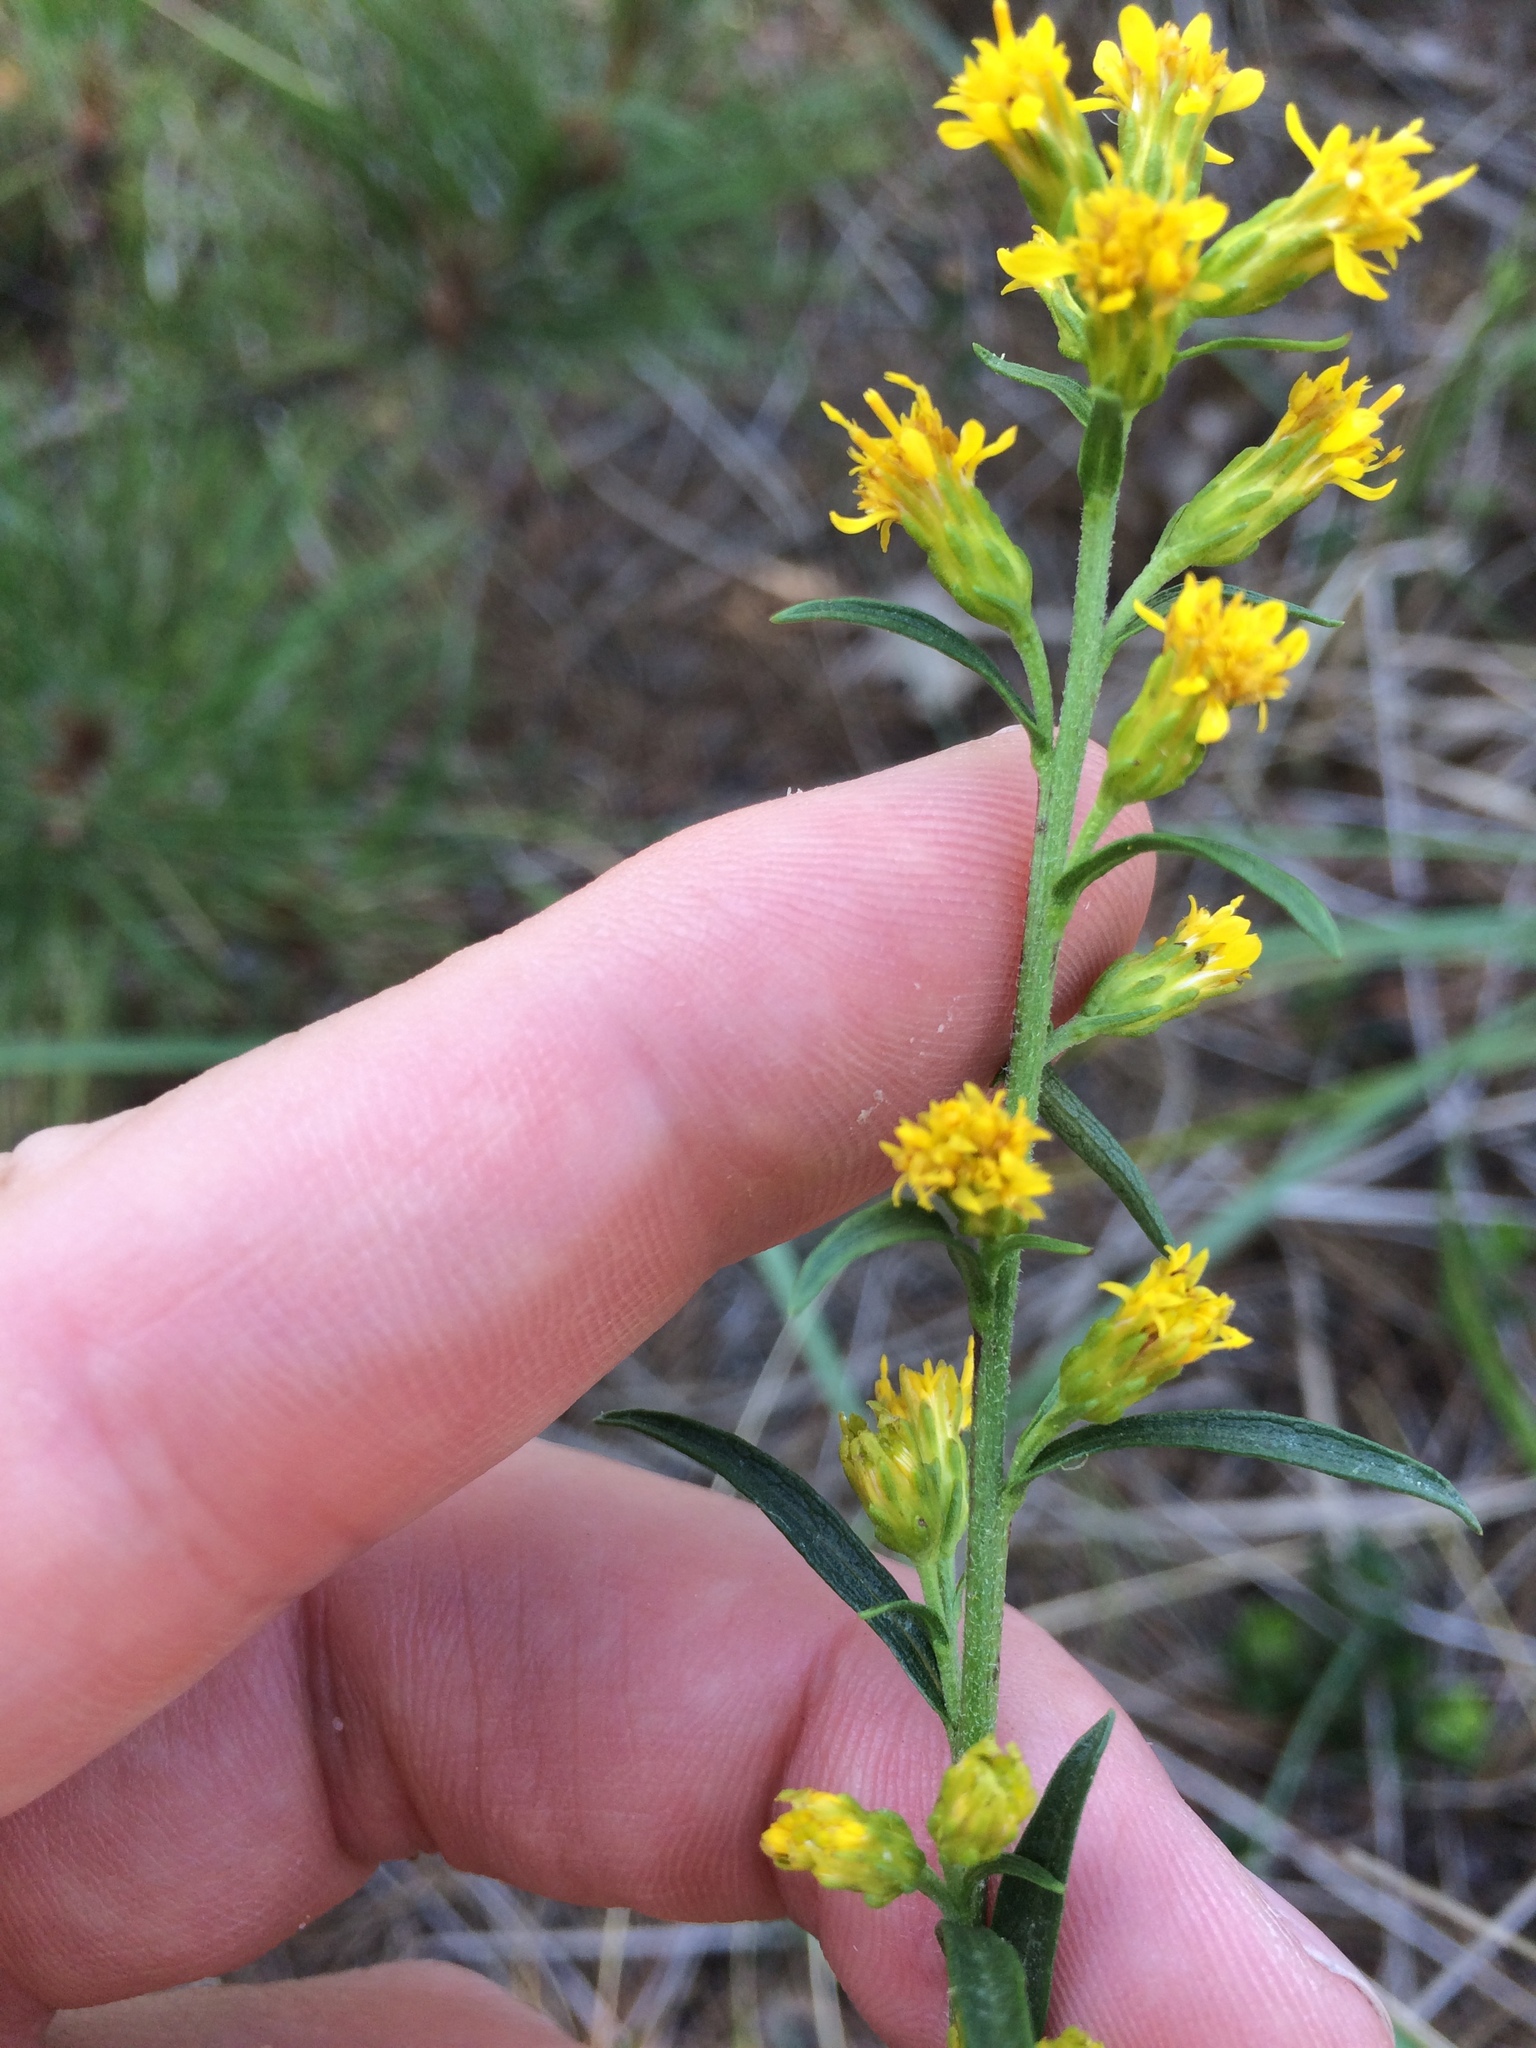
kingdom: Plantae
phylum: Tracheophyta
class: Magnoliopsida
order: Asterales
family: Asteraceae
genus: Solidago
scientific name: Solidago simplex
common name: Sticky goldenrod
